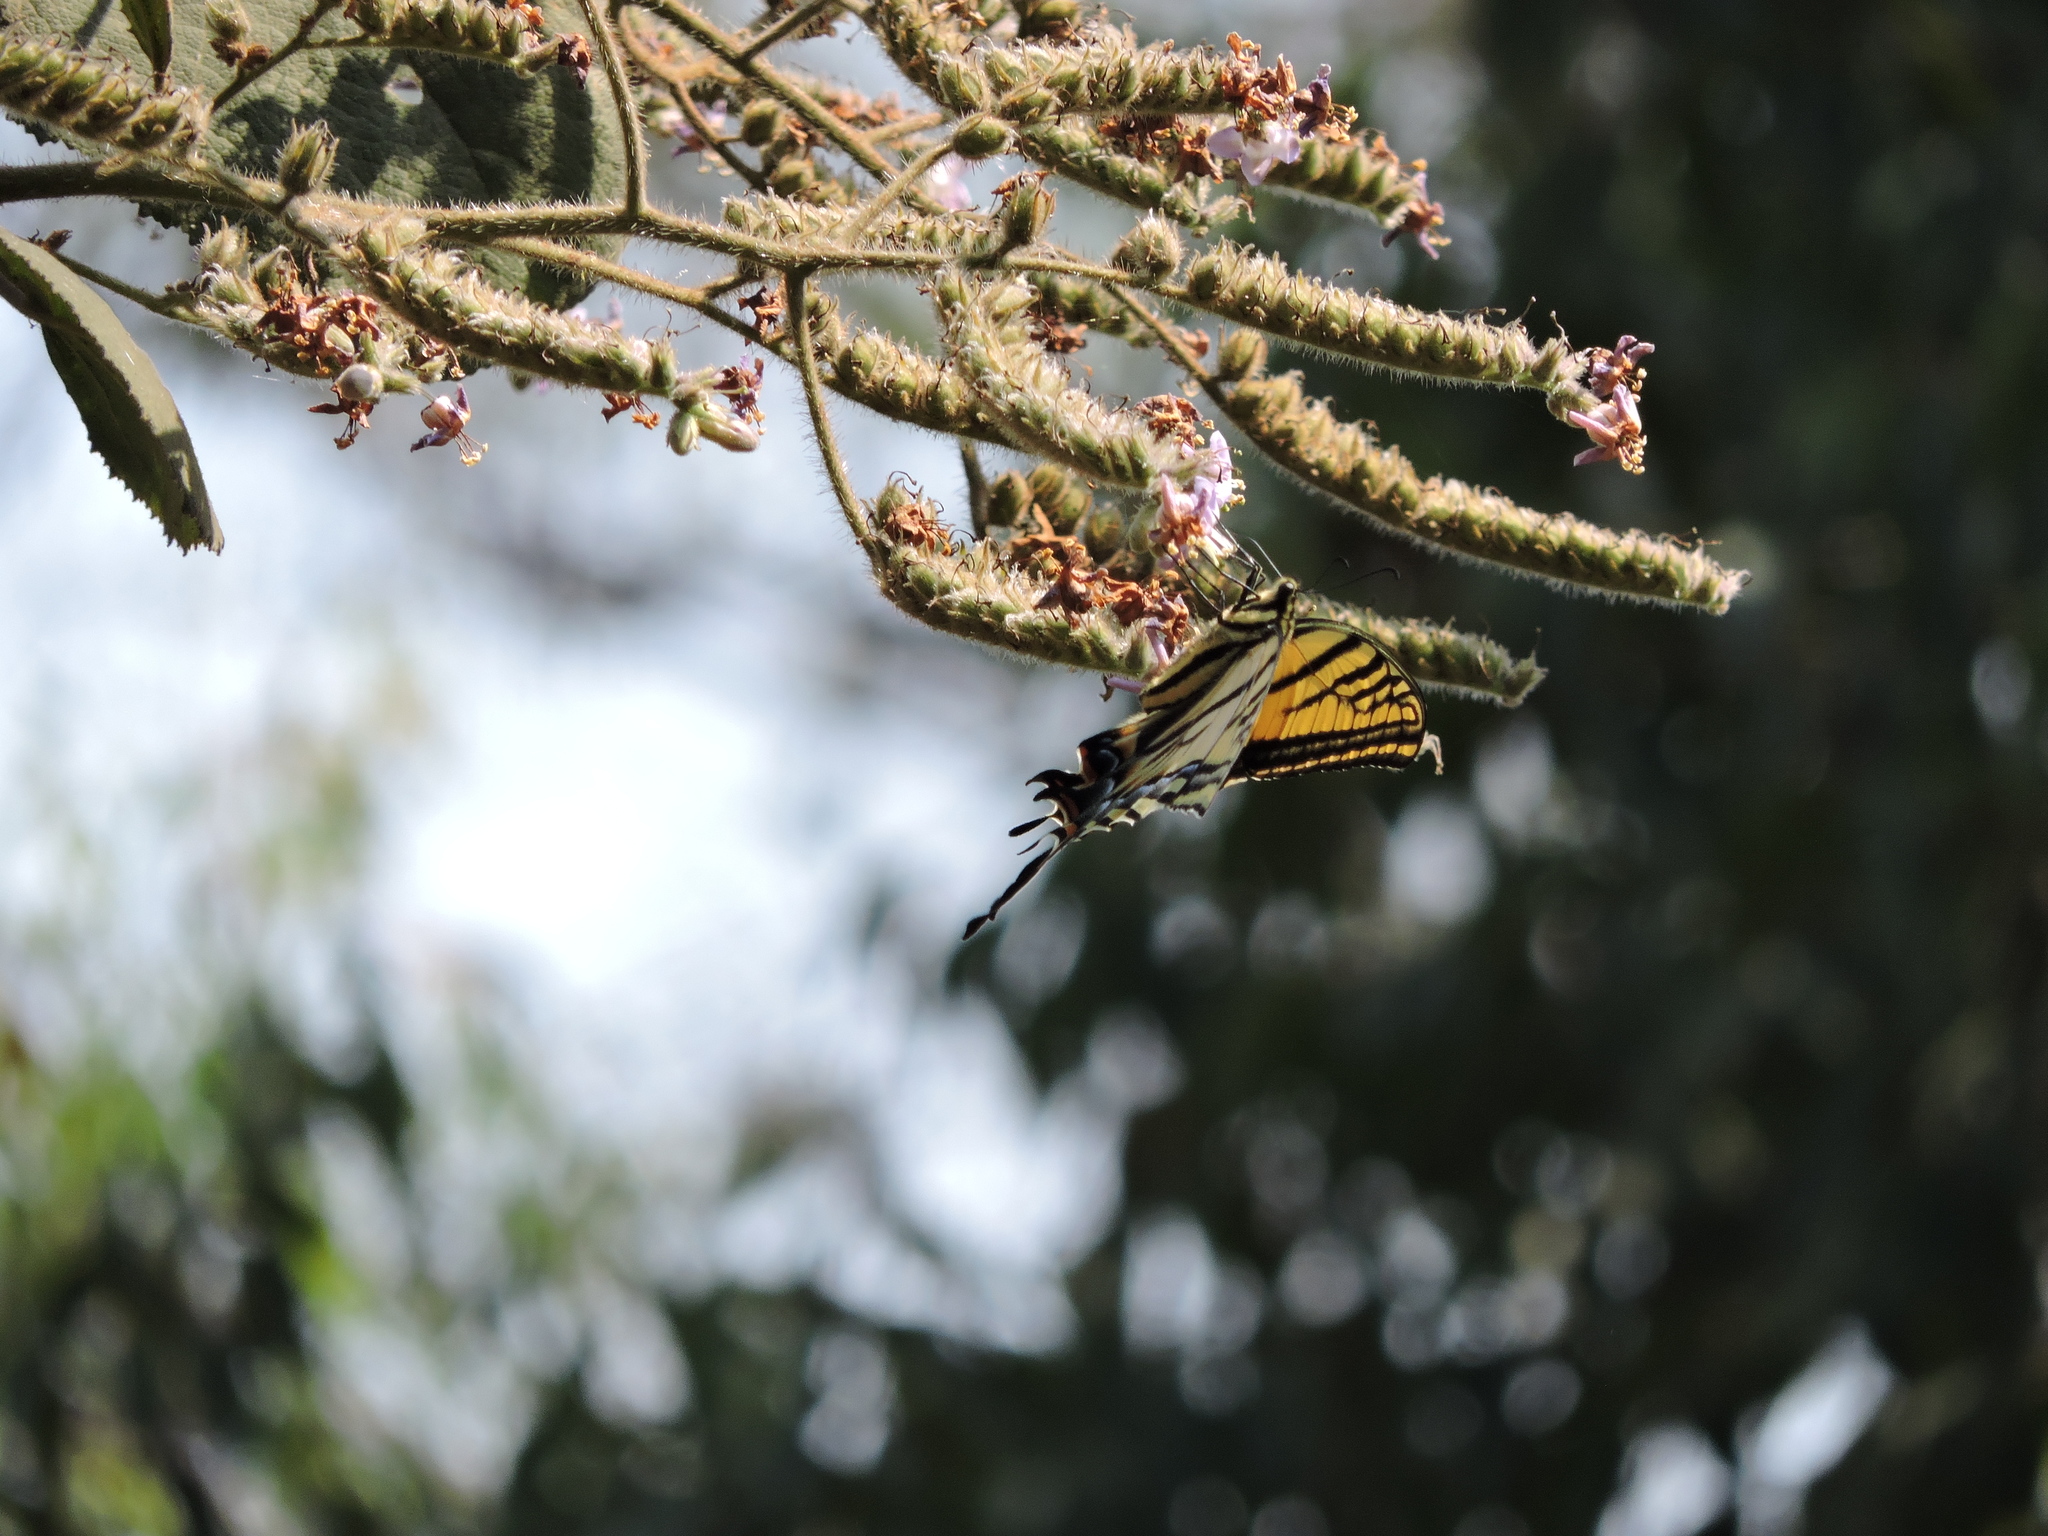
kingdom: Animalia
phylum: Arthropoda
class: Insecta
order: Lepidoptera
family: Papilionidae
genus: Papilio
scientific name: Papilio multicaudata
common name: Two-tailed tiger swallowtail
